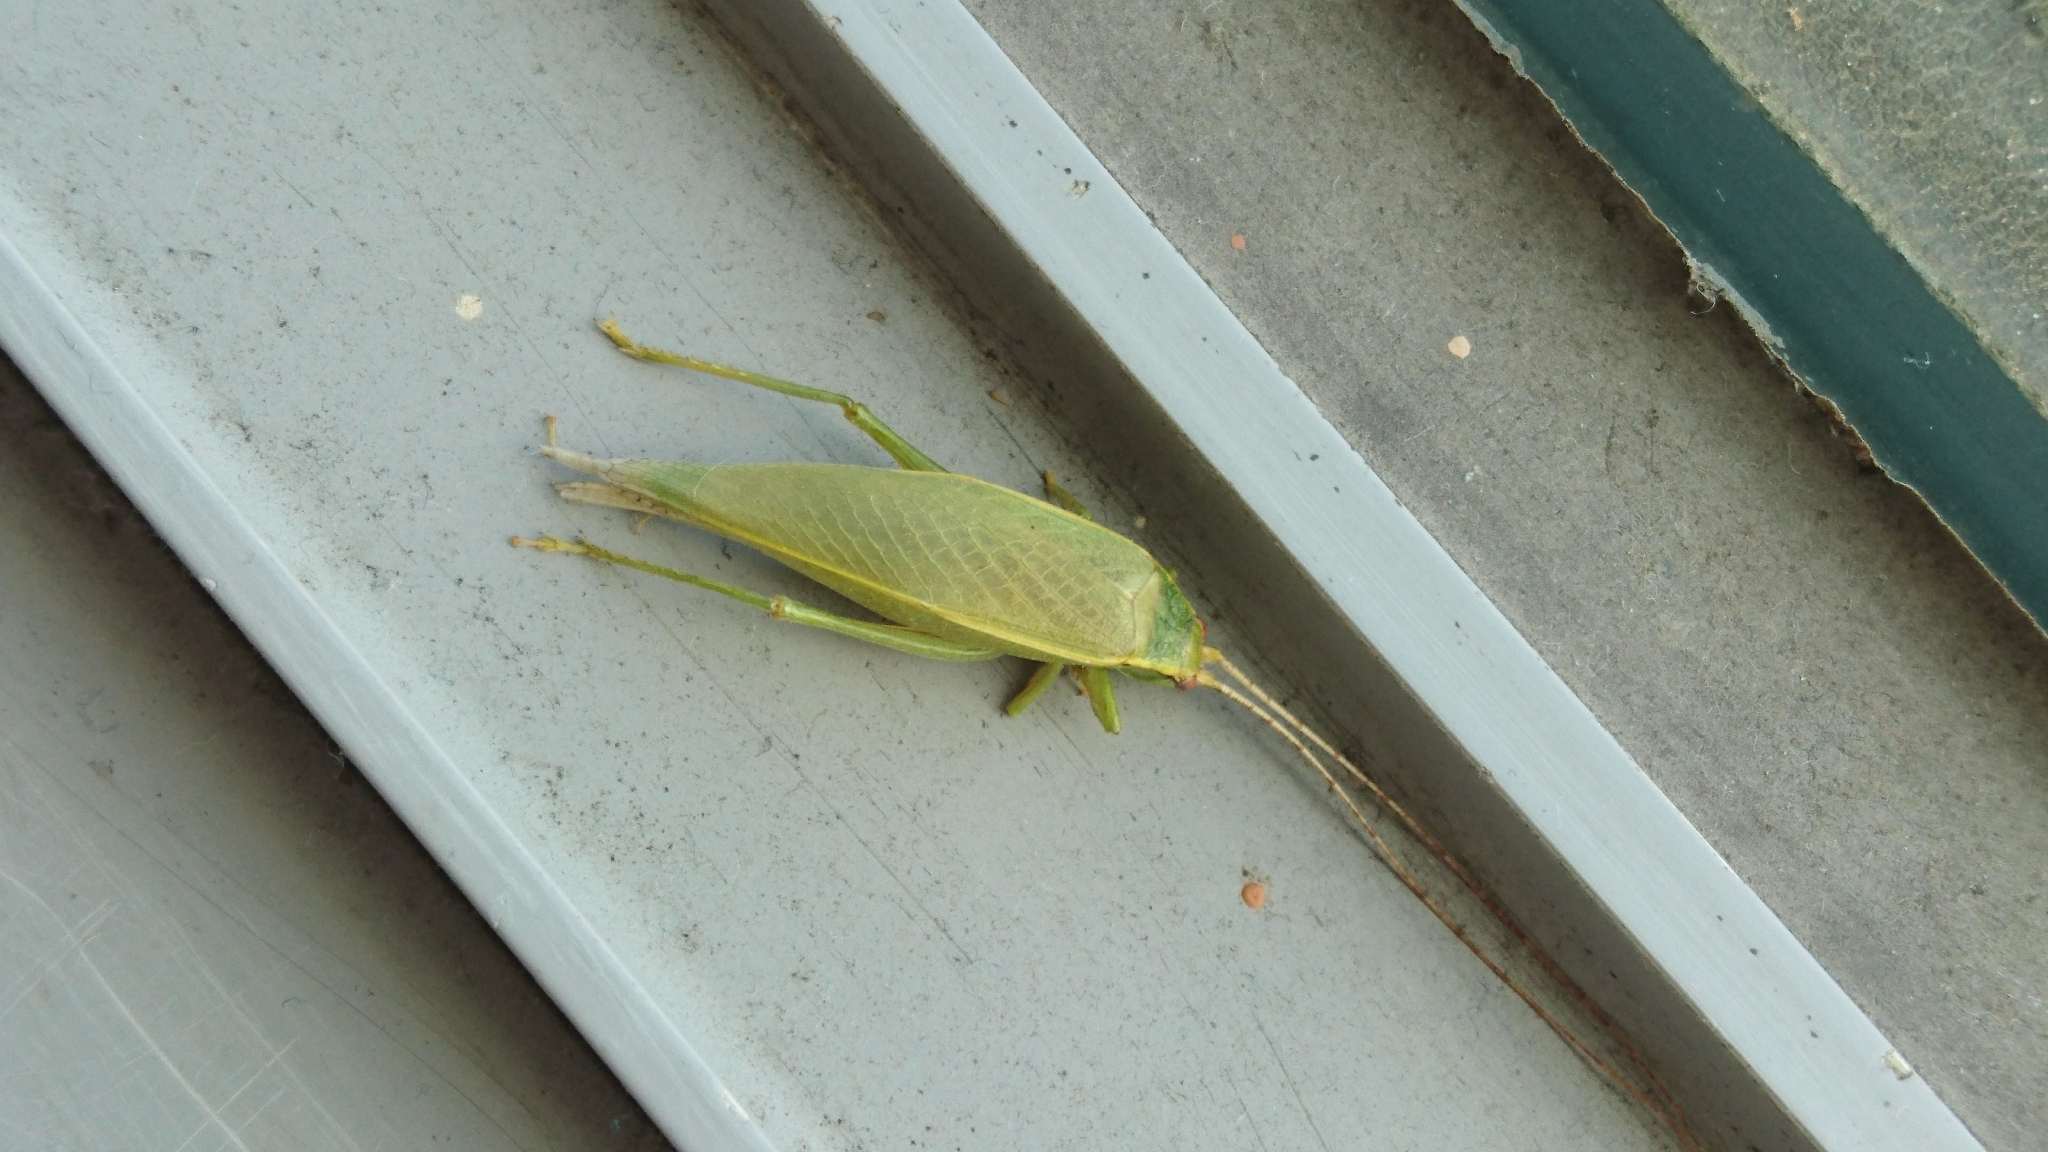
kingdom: Animalia
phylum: Arthropoda
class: Insecta
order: Orthoptera
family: Gryllidae
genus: Truljalia
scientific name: Truljalia hibinonis
